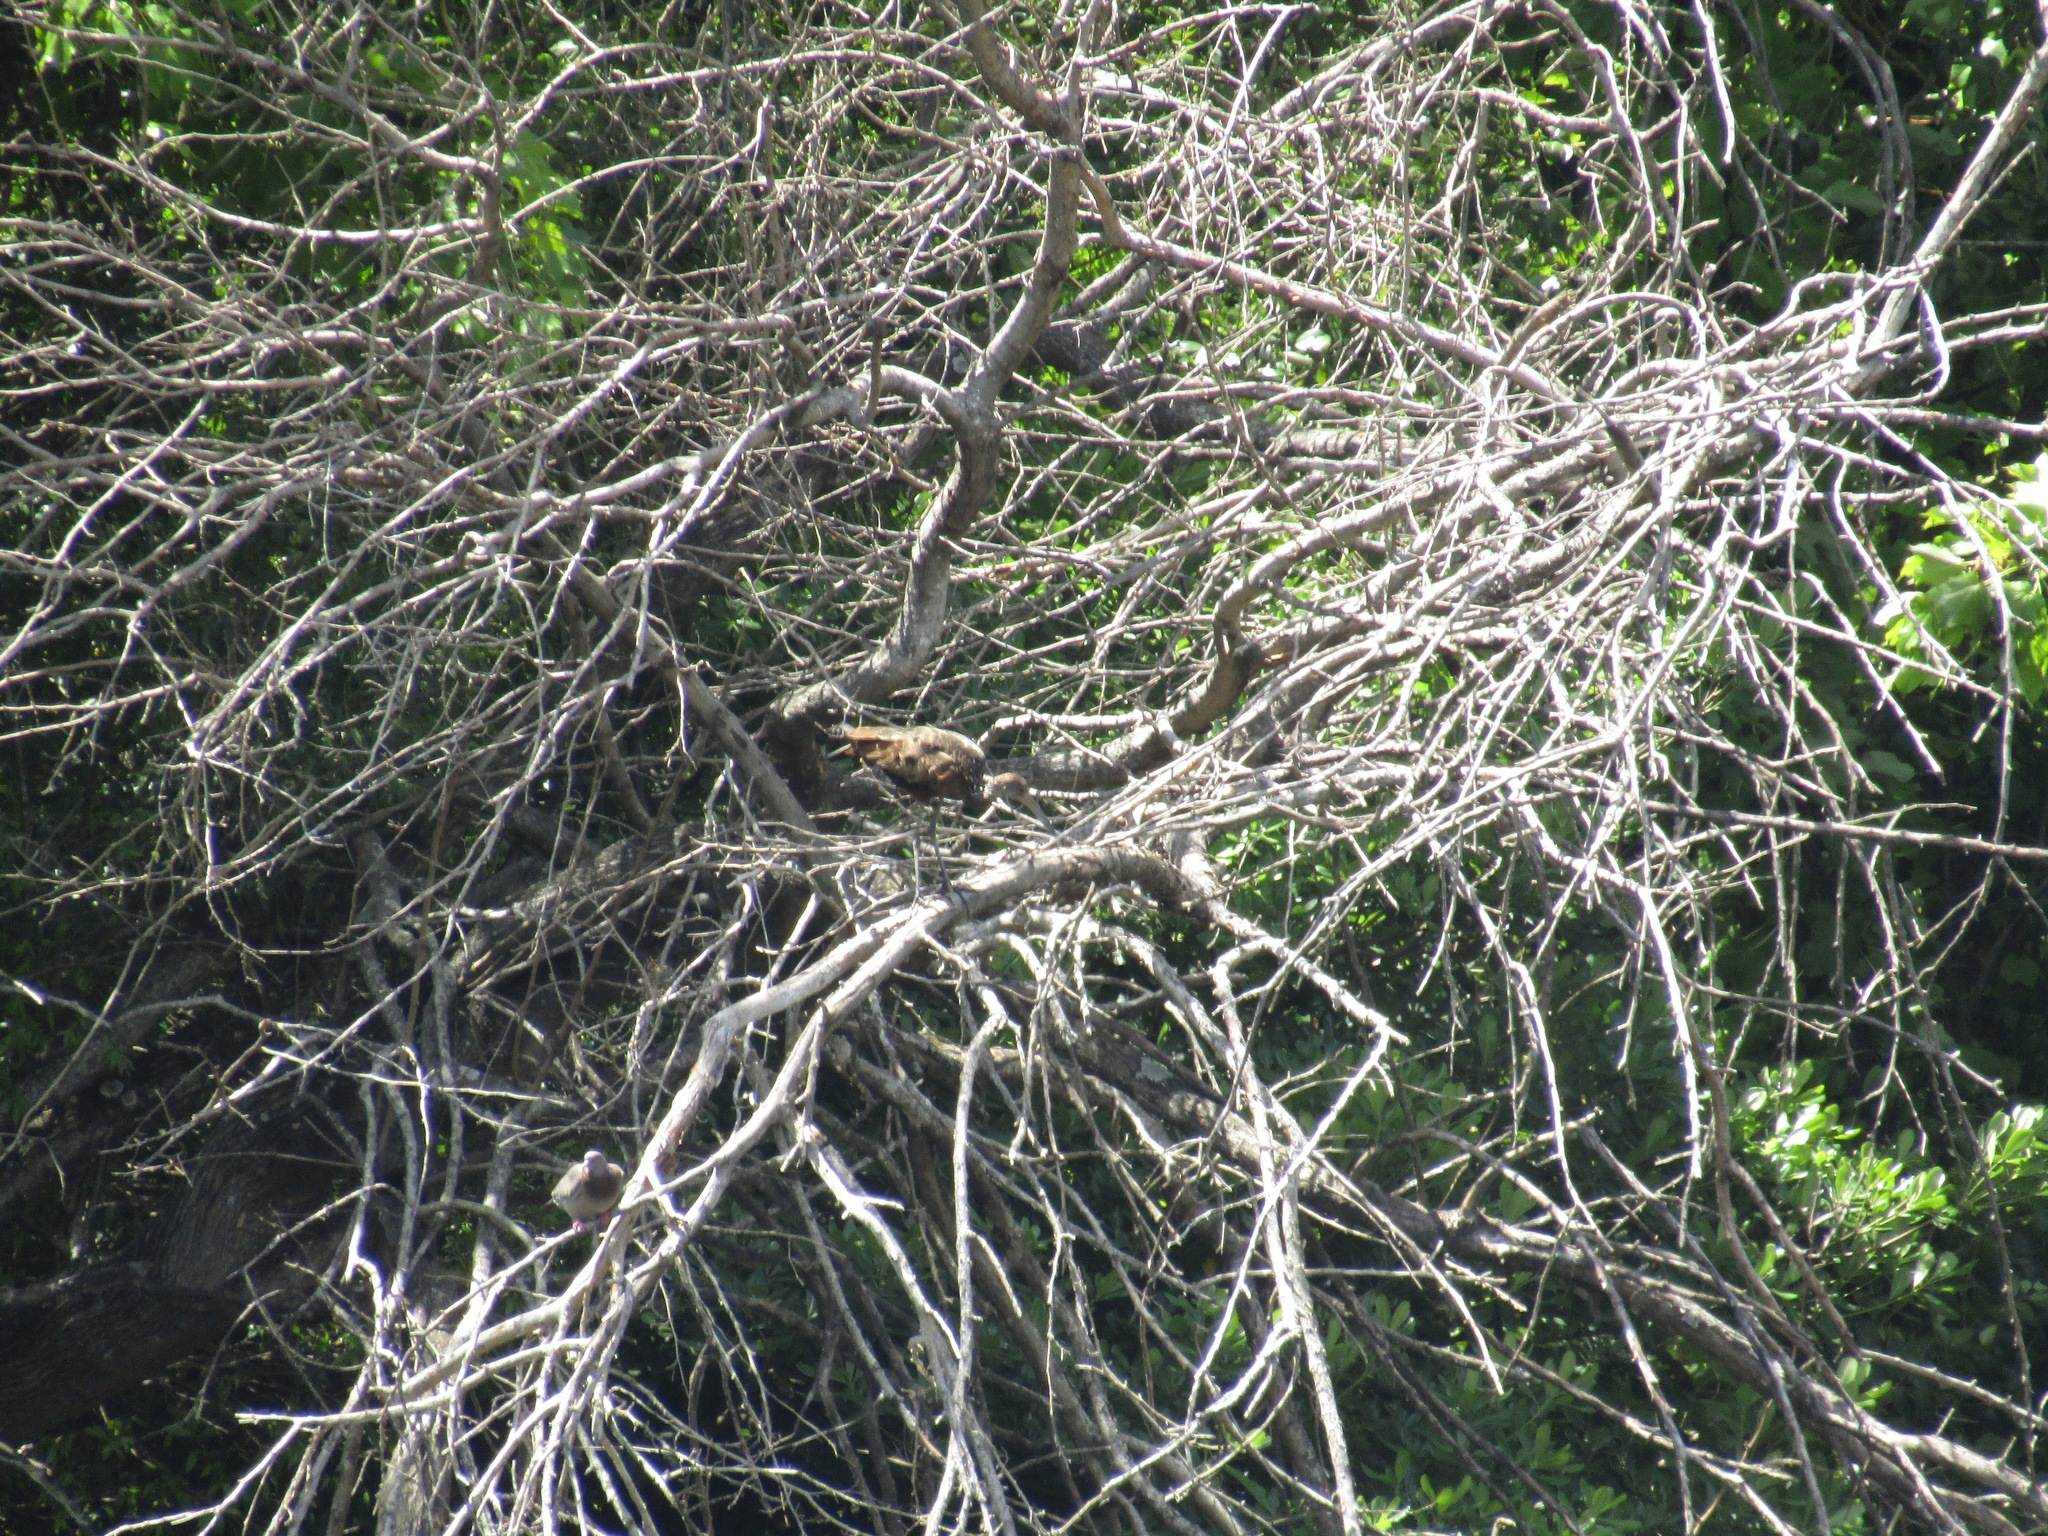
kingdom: Animalia
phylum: Chordata
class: Aves
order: Gruiformes
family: Aramidae
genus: Aramus
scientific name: Aramus guarauna
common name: Limpkin
